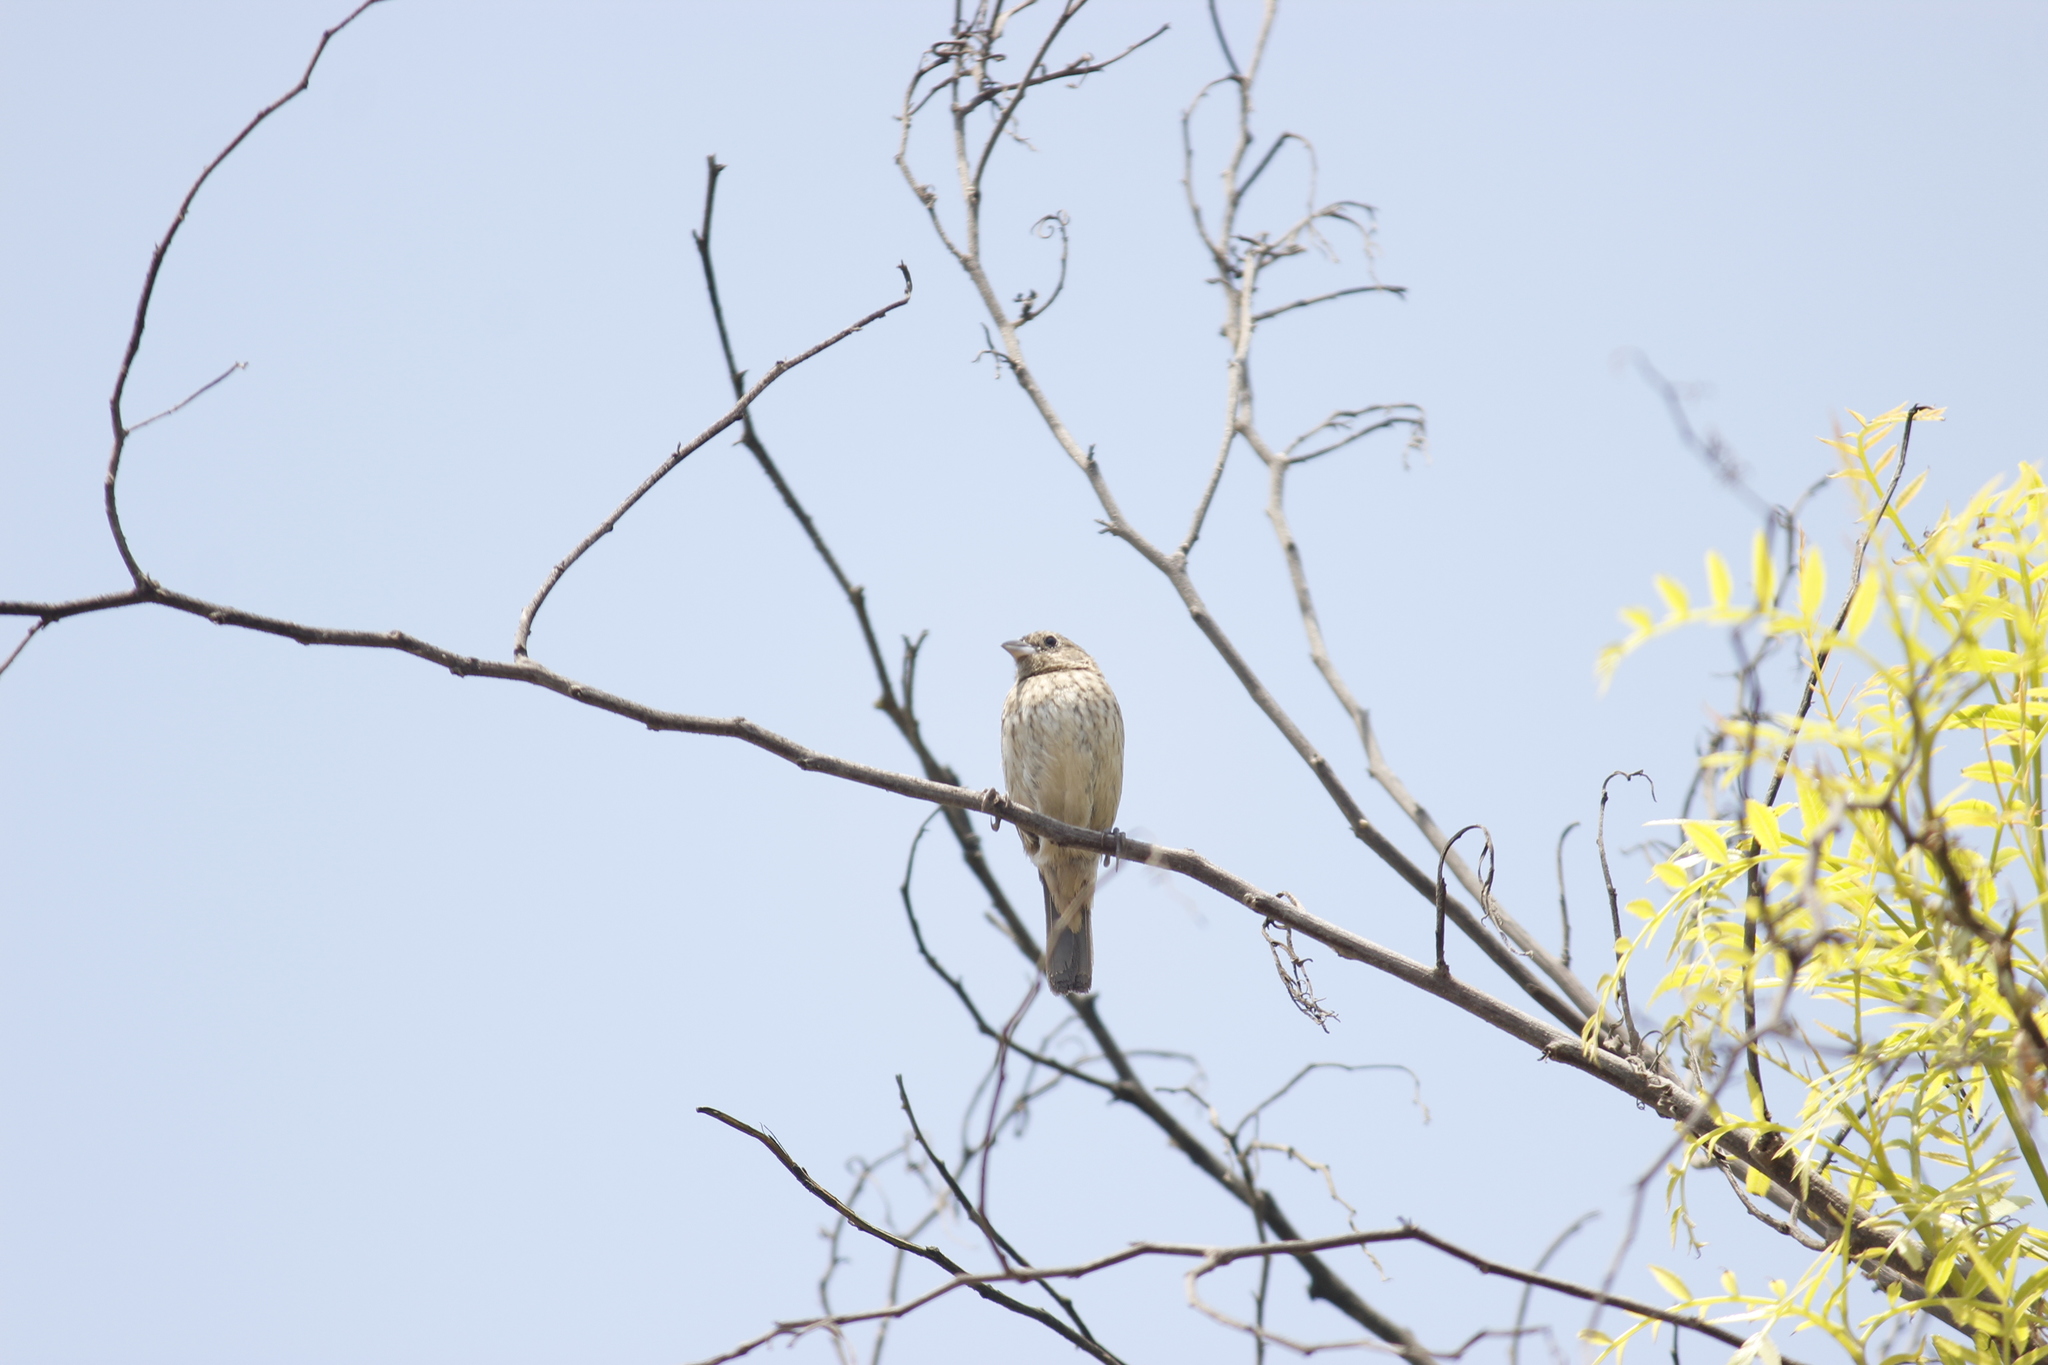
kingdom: Animalia
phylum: Chordata
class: Aves
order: Passeriformes
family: Thraupidae
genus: Volatinia
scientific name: Volatinia jacarina
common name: Blue-black grassquit
